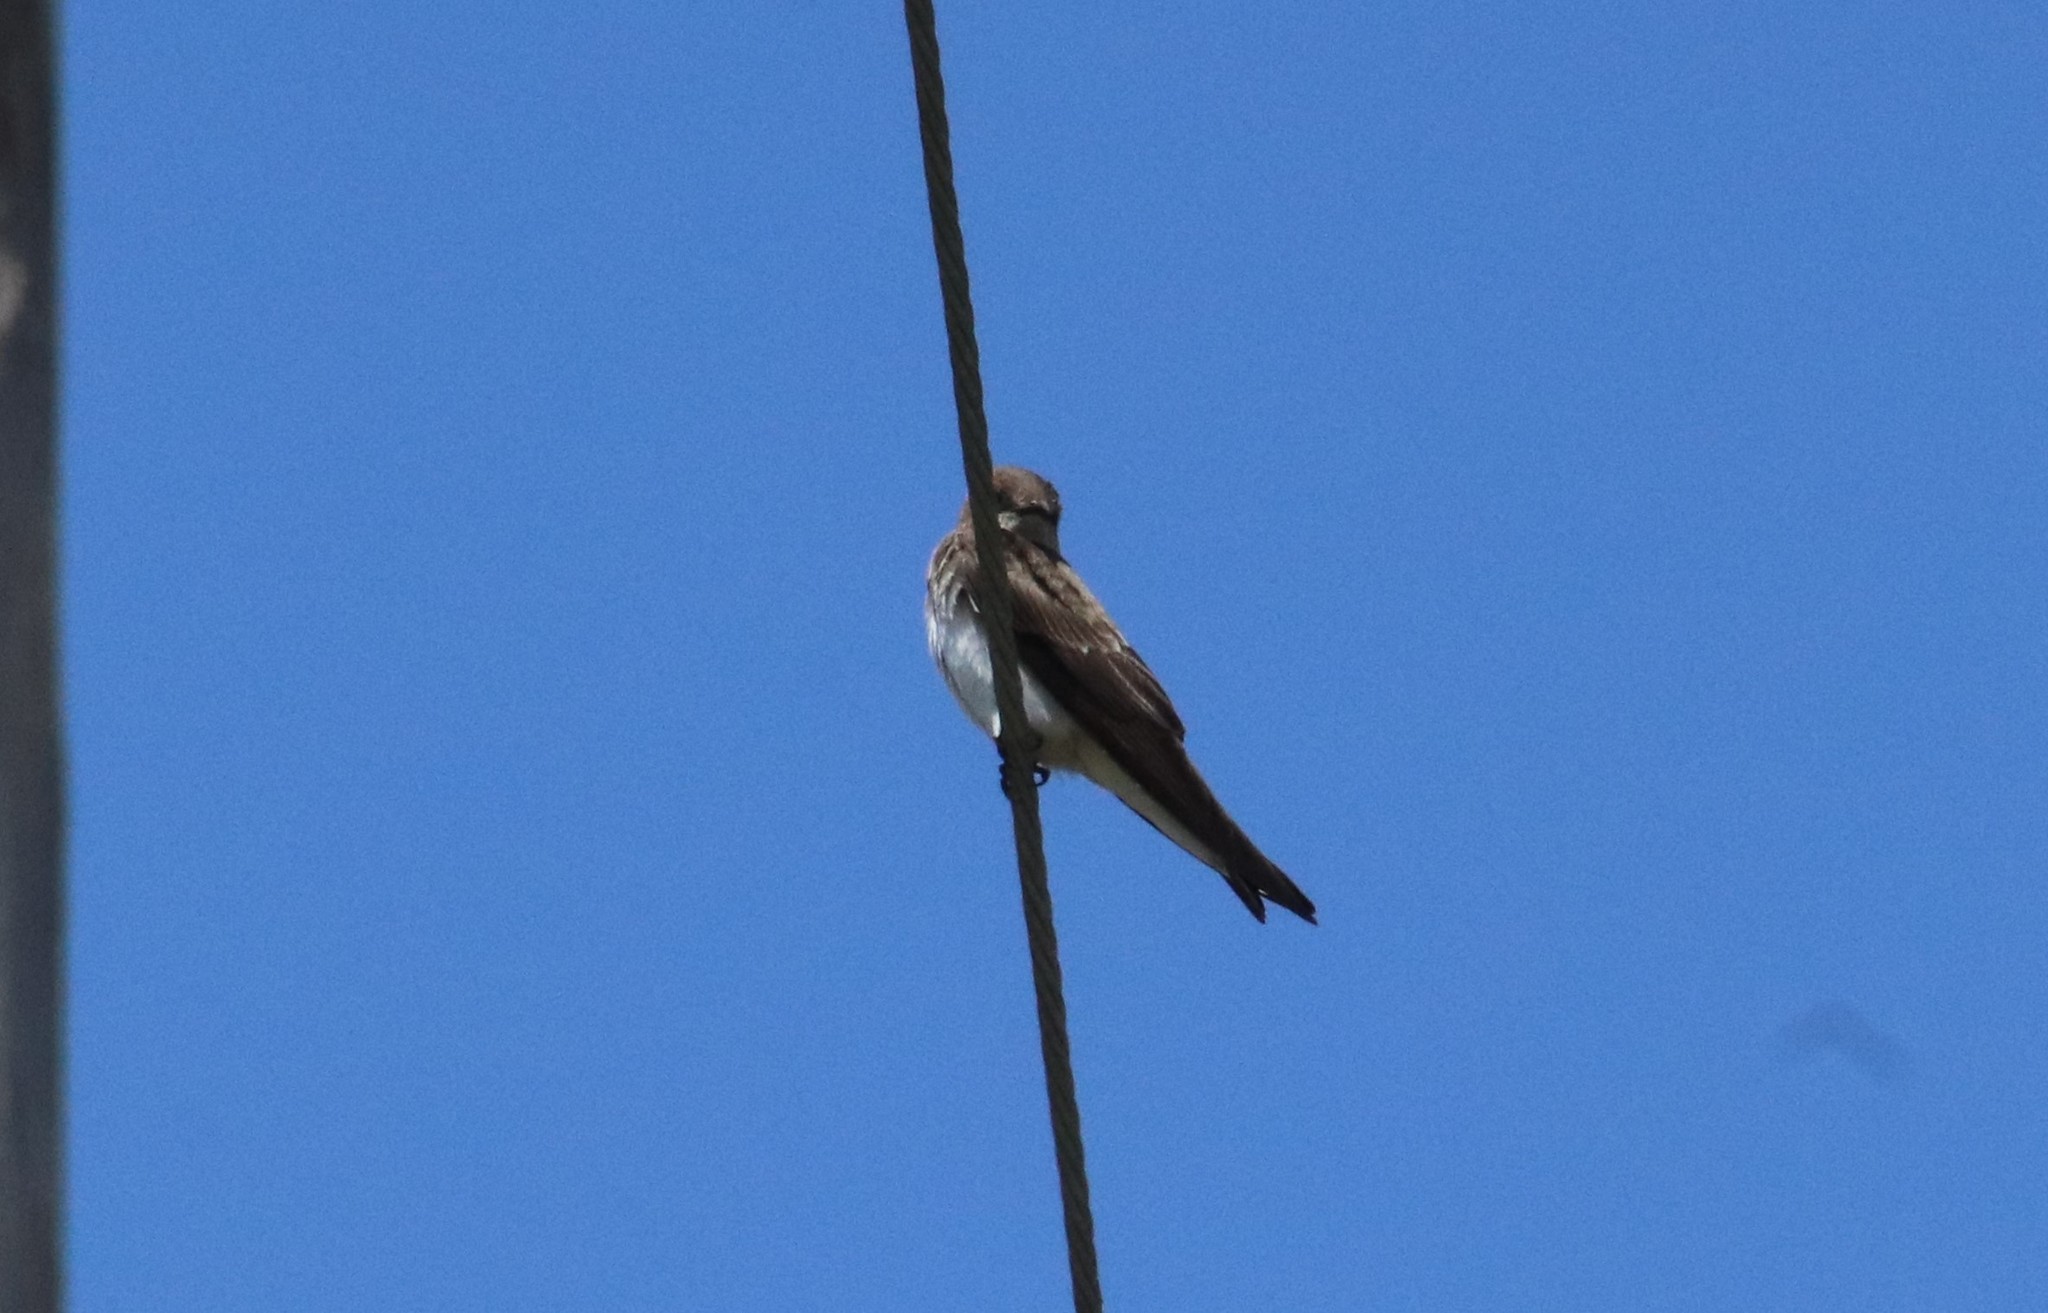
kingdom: Animalia
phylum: Chordata
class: Aves
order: Passeriformes
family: Hirundinidae
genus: Stelgidopteryx
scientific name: Stelgidopteryx serripennis
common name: Northern rough-winged swallow
